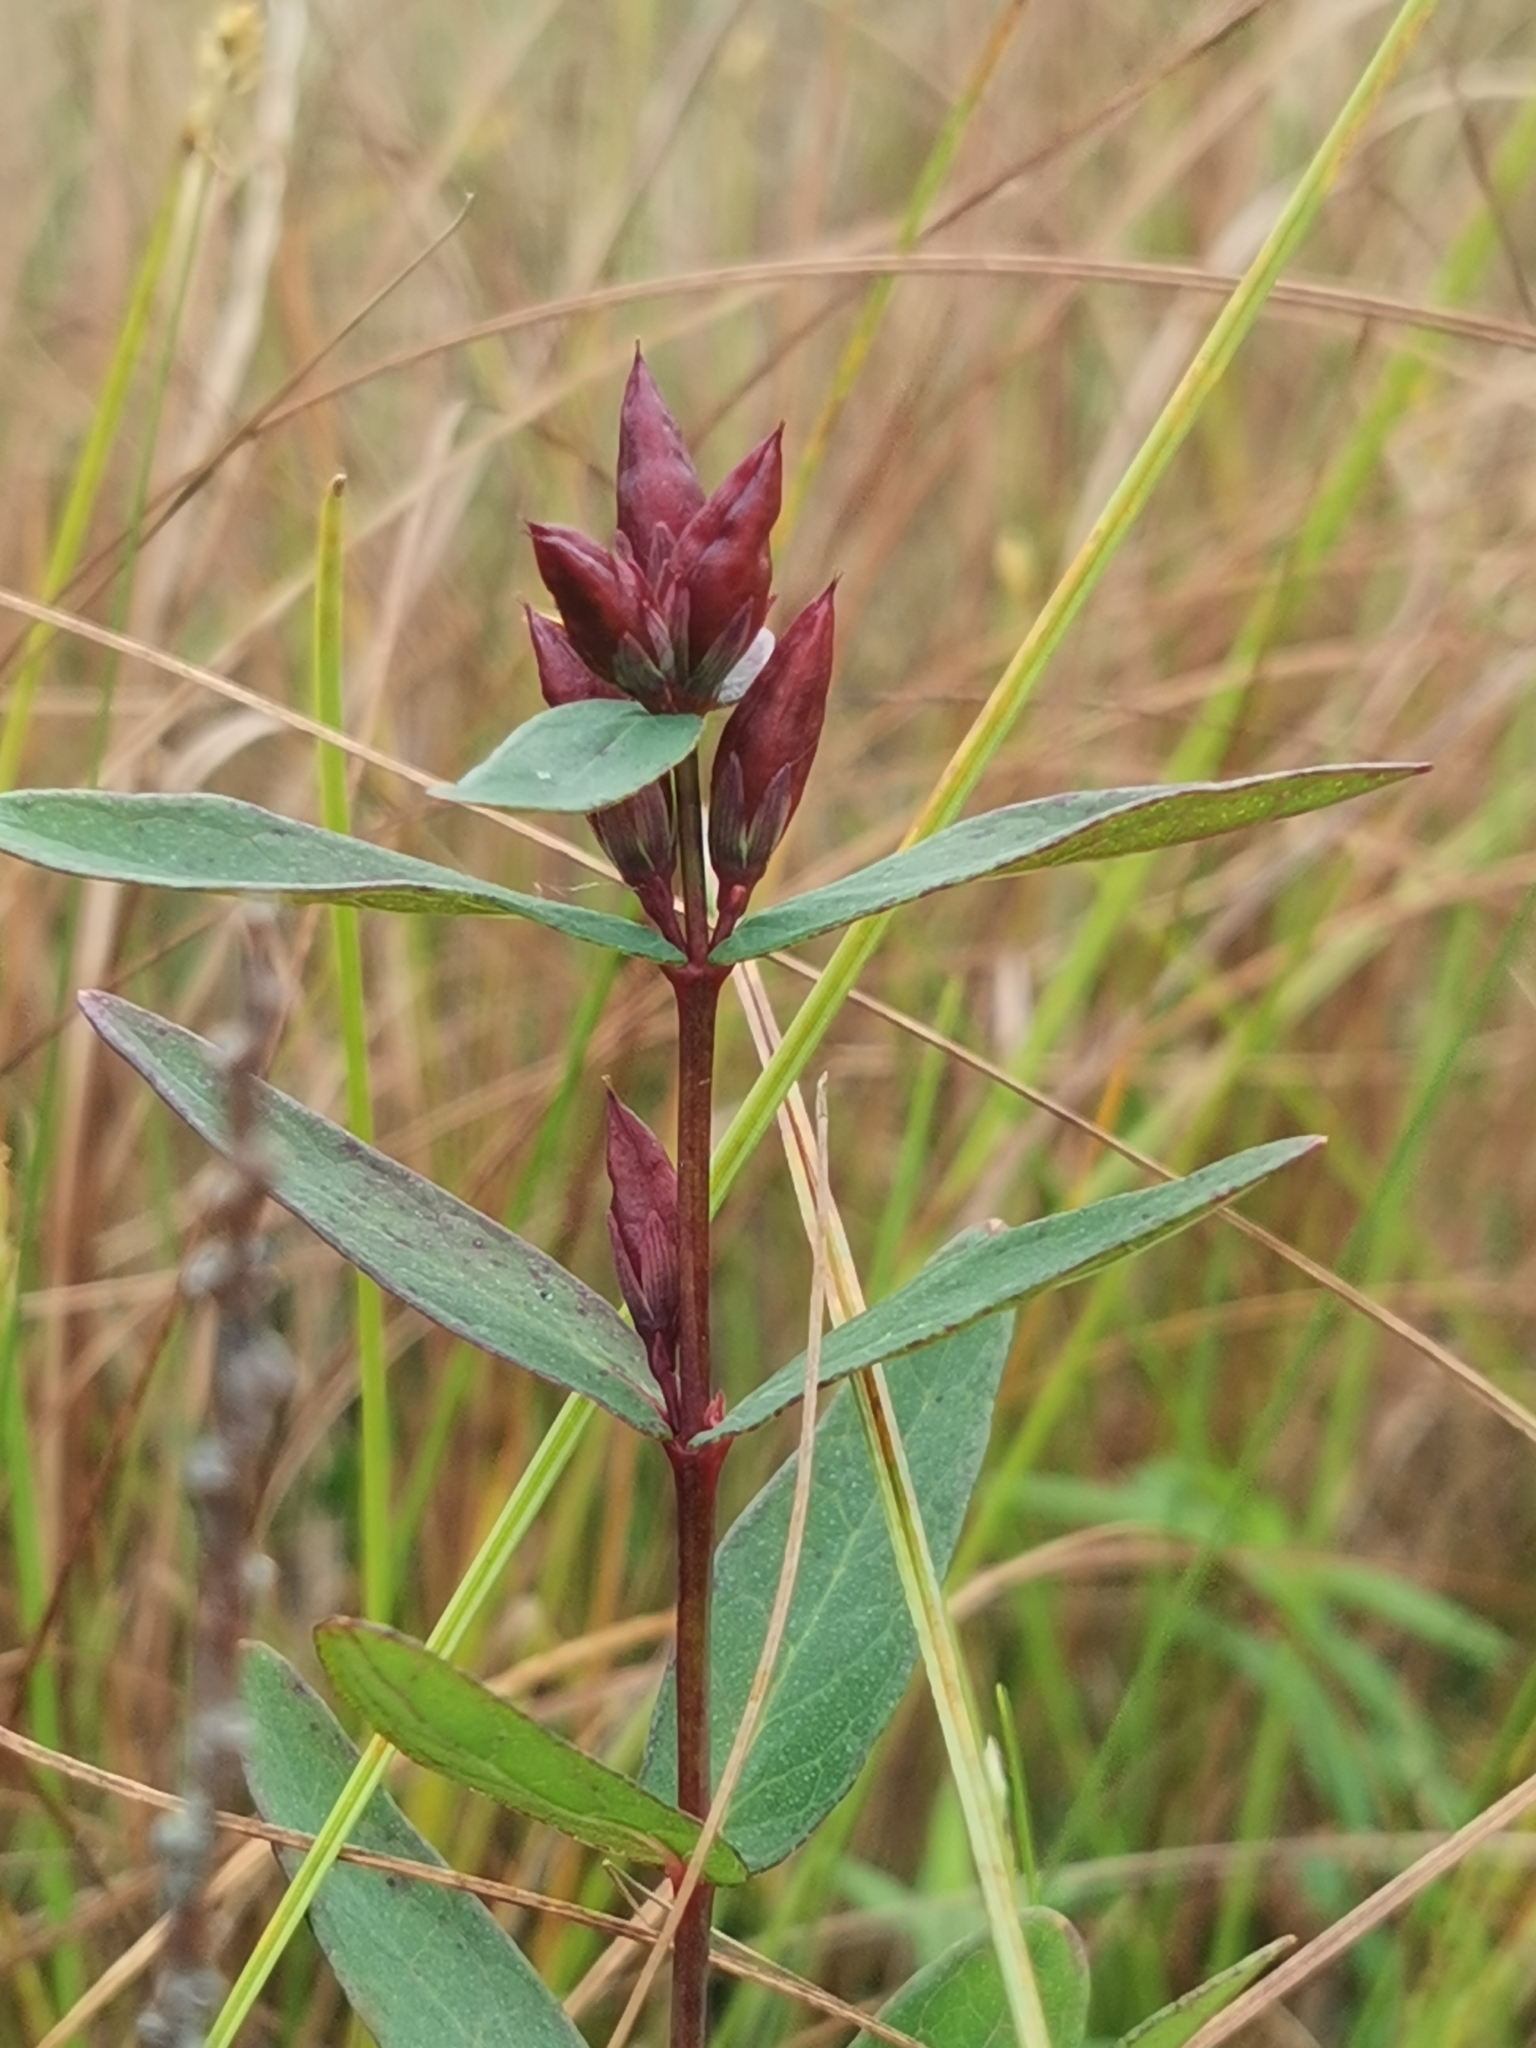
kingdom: Plantae
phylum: Tracheophyta
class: Magnoliopsida
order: Malpighiales
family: Hypericaceae
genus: Triadenum
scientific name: Triadenum japonicum
